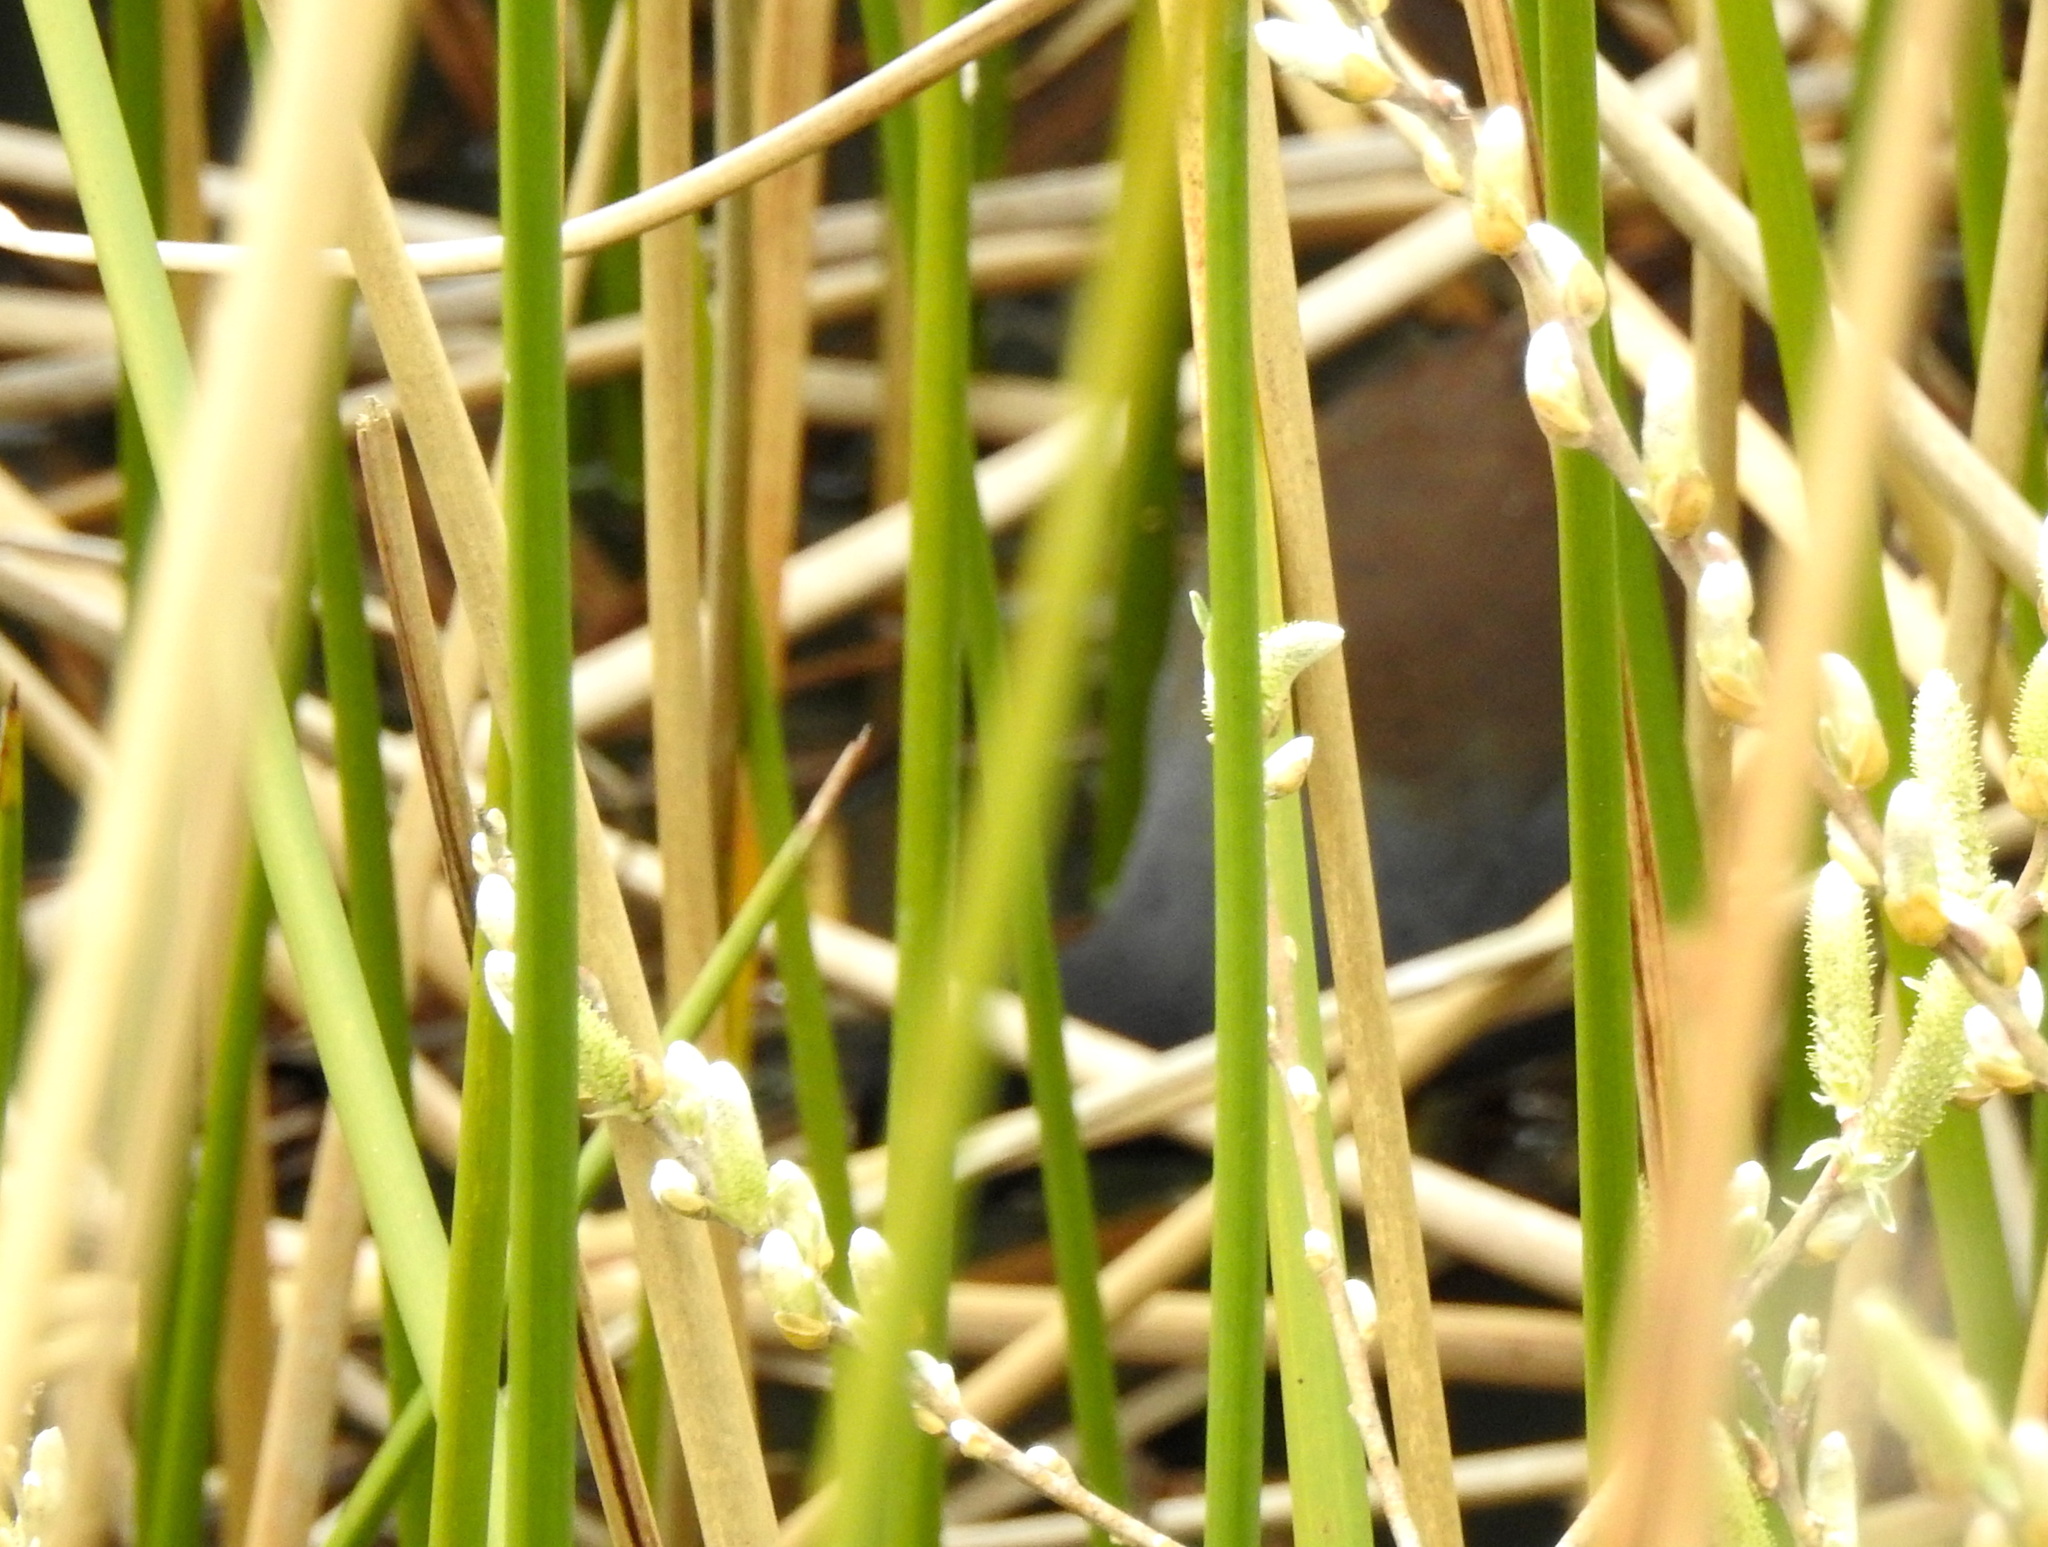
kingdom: Animalia
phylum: Chordata
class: Aves
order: Gruiformes
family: Rallidae
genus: Gallinula
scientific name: Gallinula chloropus
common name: Common moorhen
